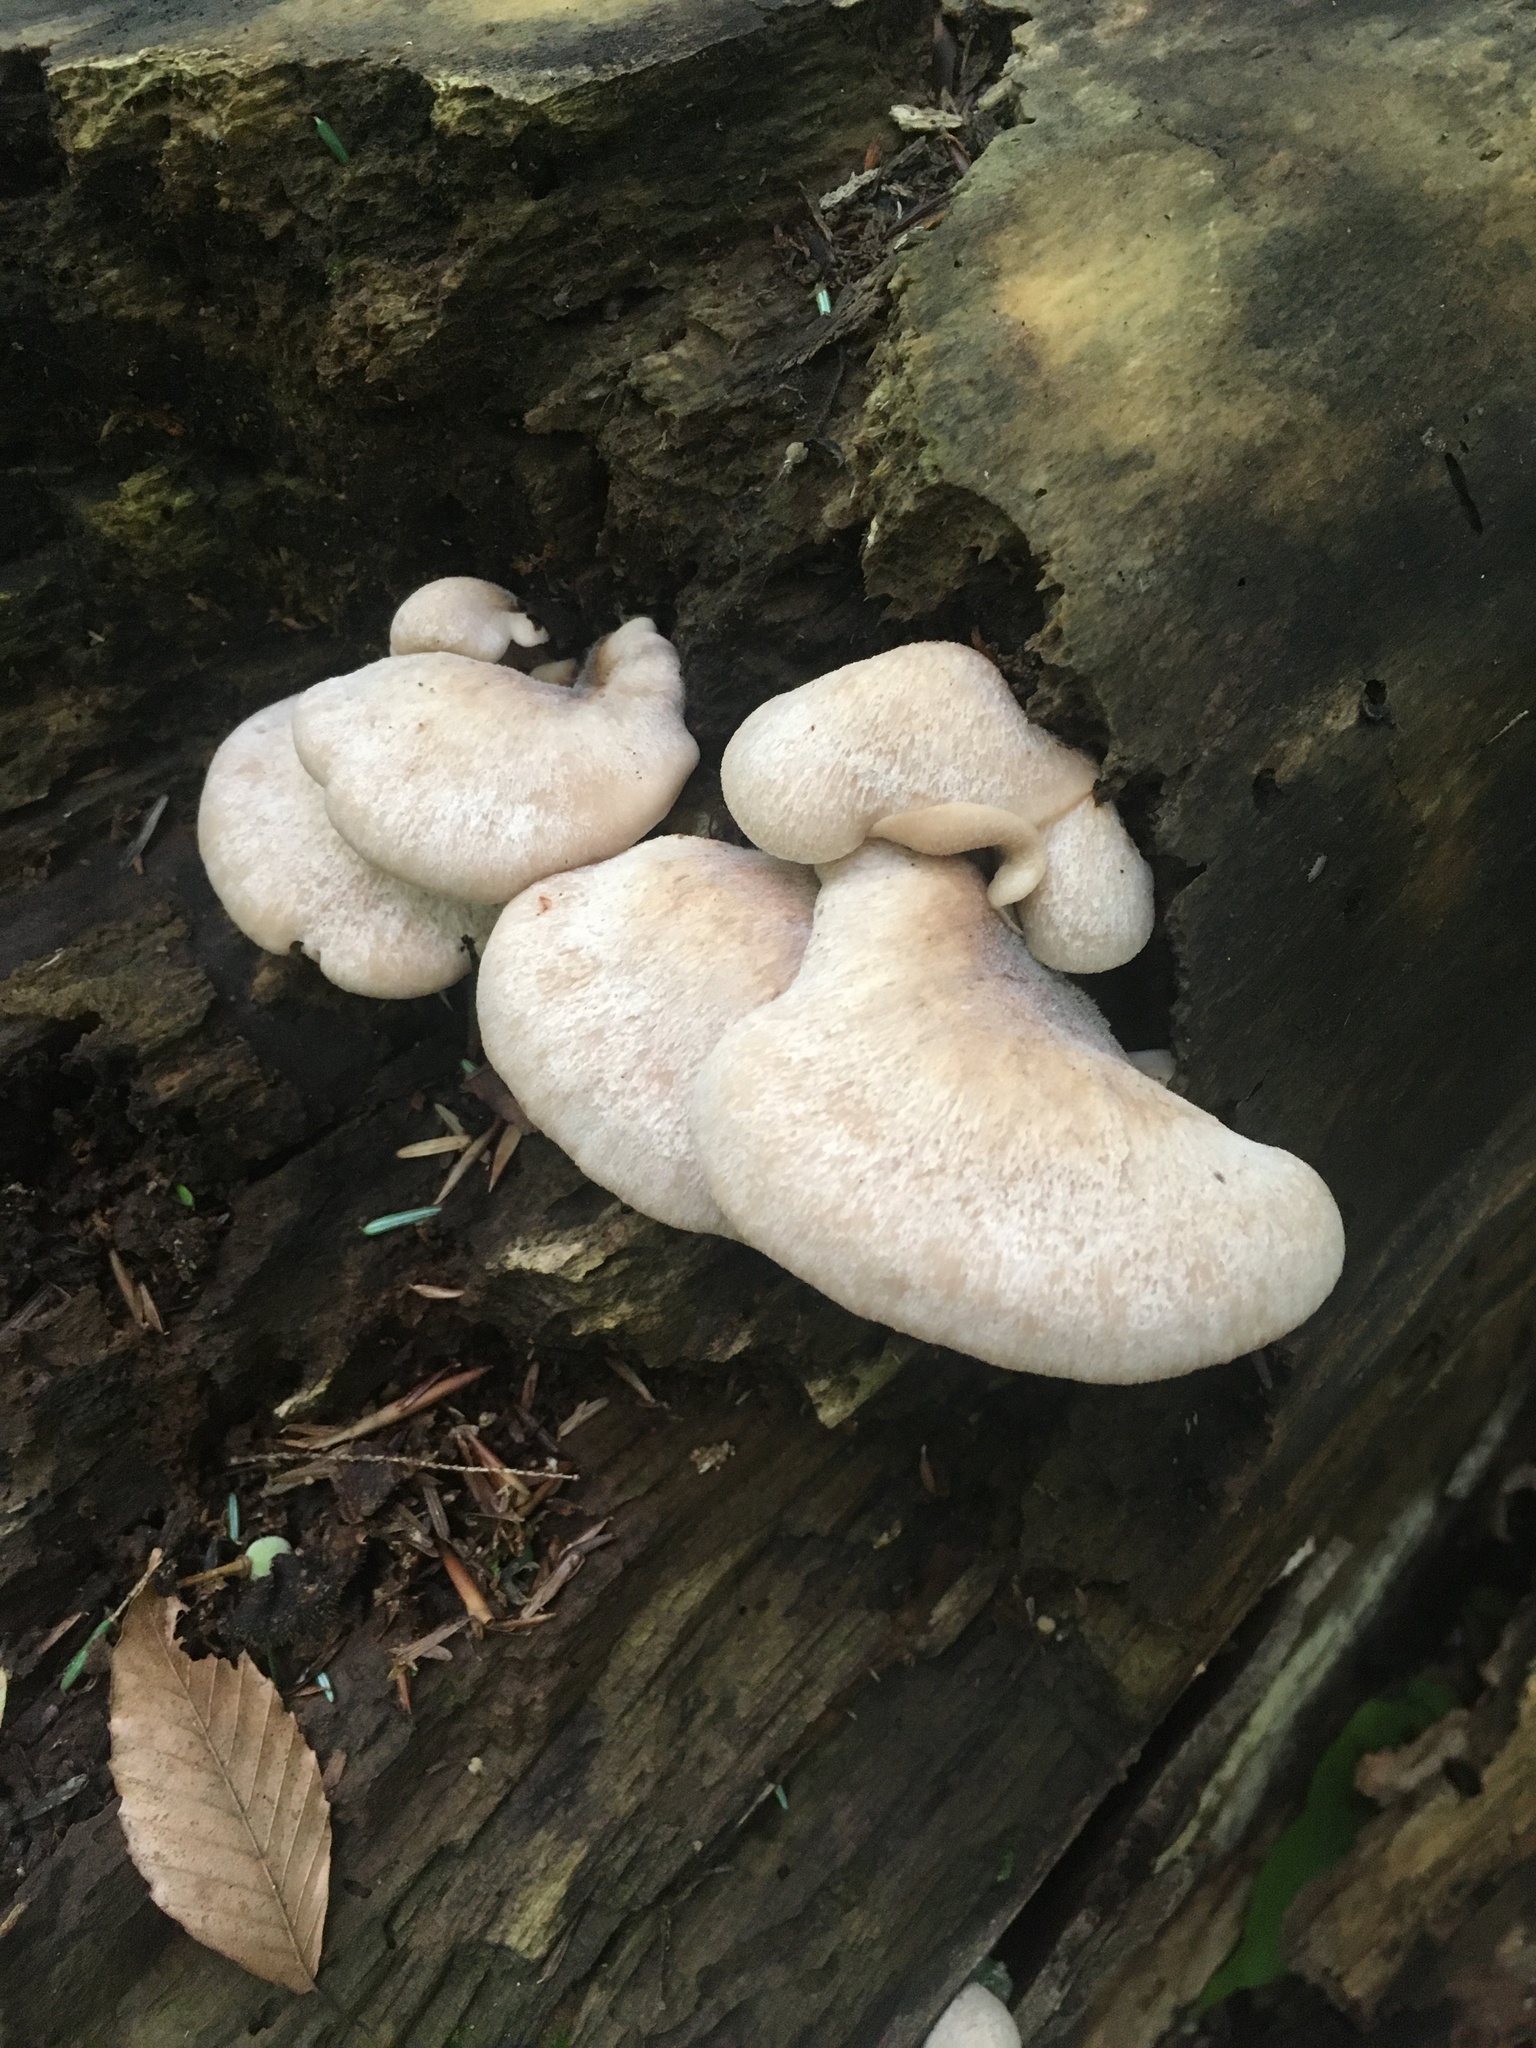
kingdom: Fungi
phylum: Basidiomycota
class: Agaricomycetes
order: Russulales
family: Auriscalpiaceae
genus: Lentinellus
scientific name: Lentinellus ursinus
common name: Bear lentinus
